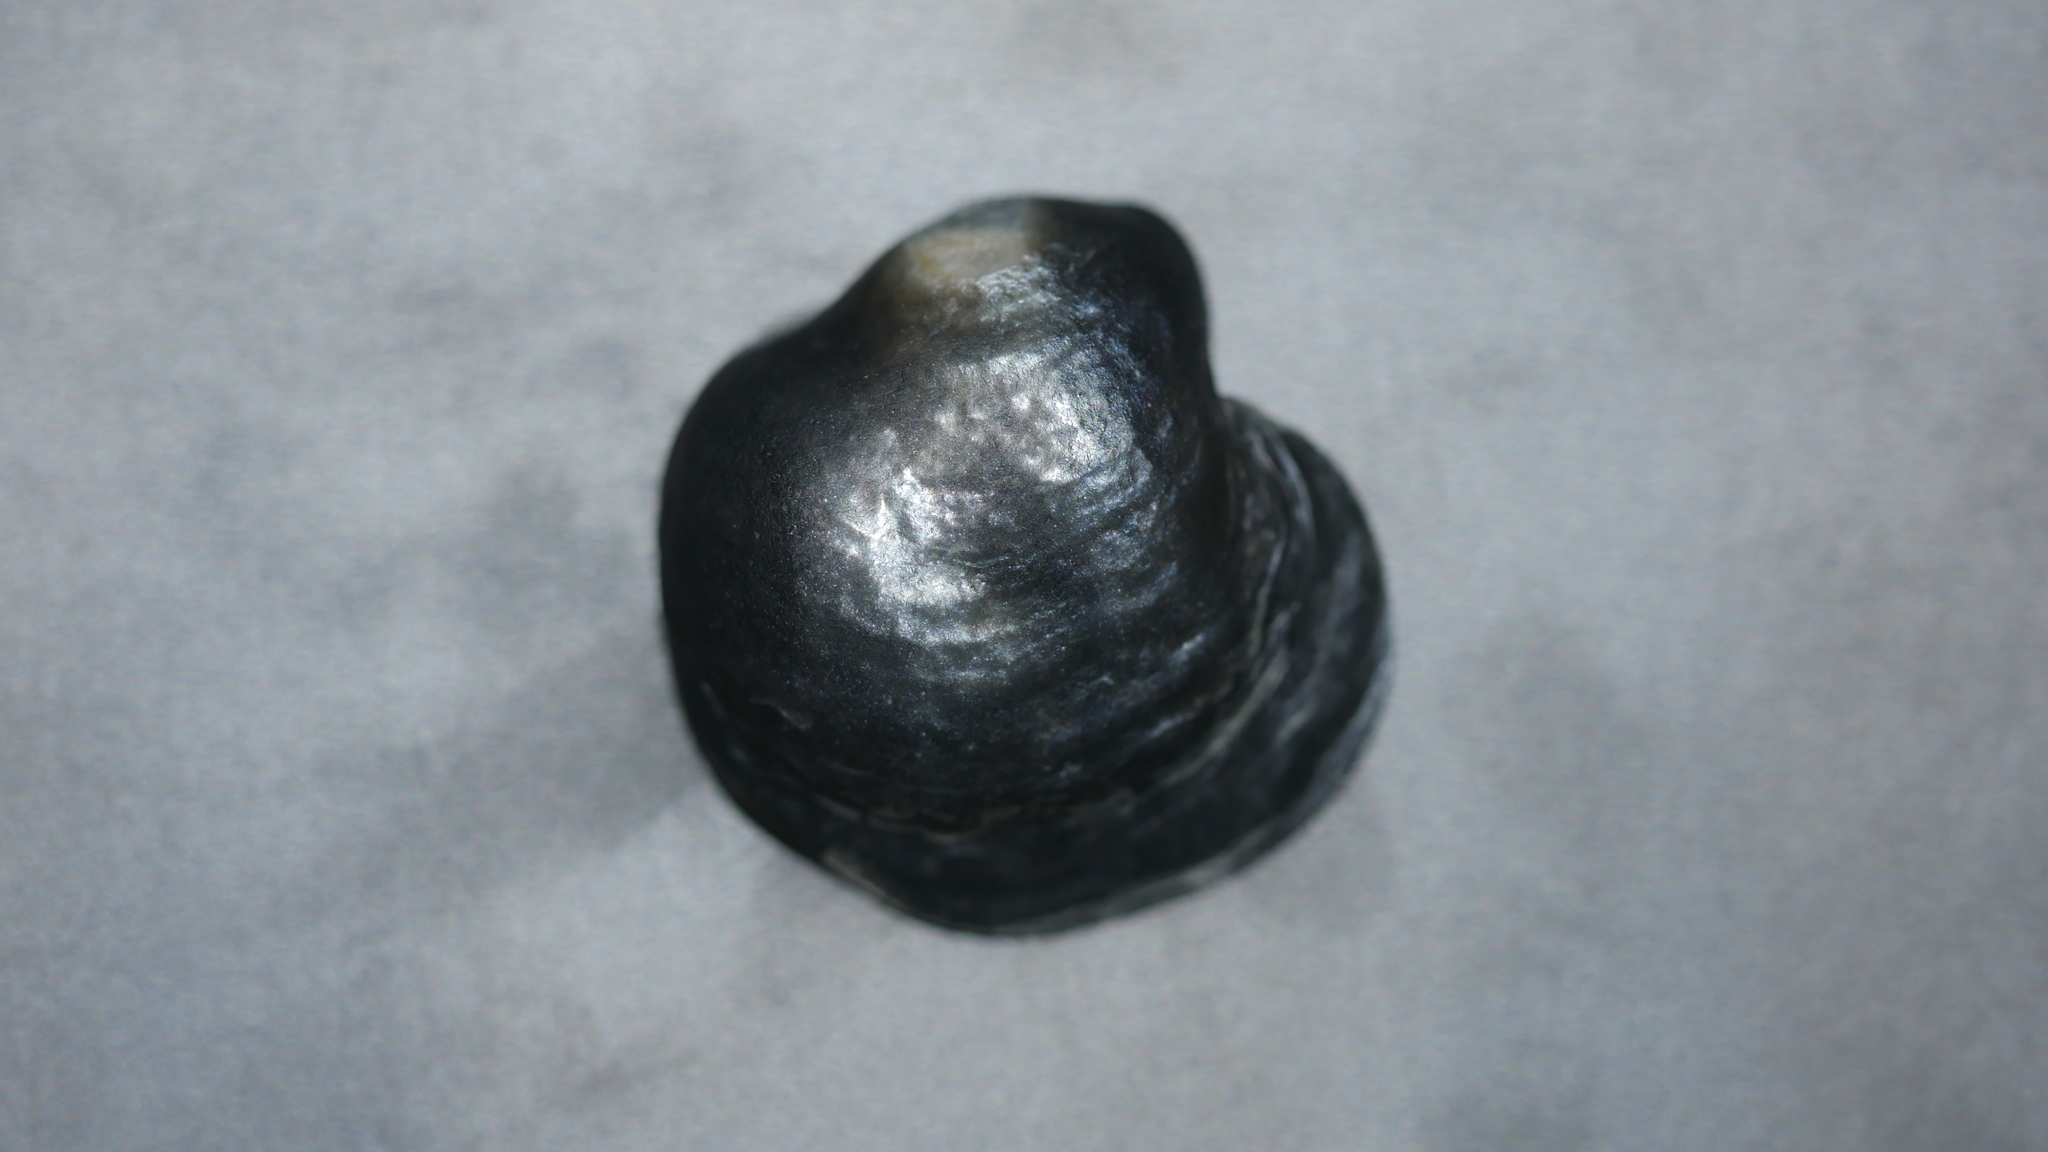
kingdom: Animalia
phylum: Mollusca
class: Bivalvia
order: Pectinida
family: Anomiidae
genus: Anomia
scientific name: Anomia simplex
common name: Common jingle shell
